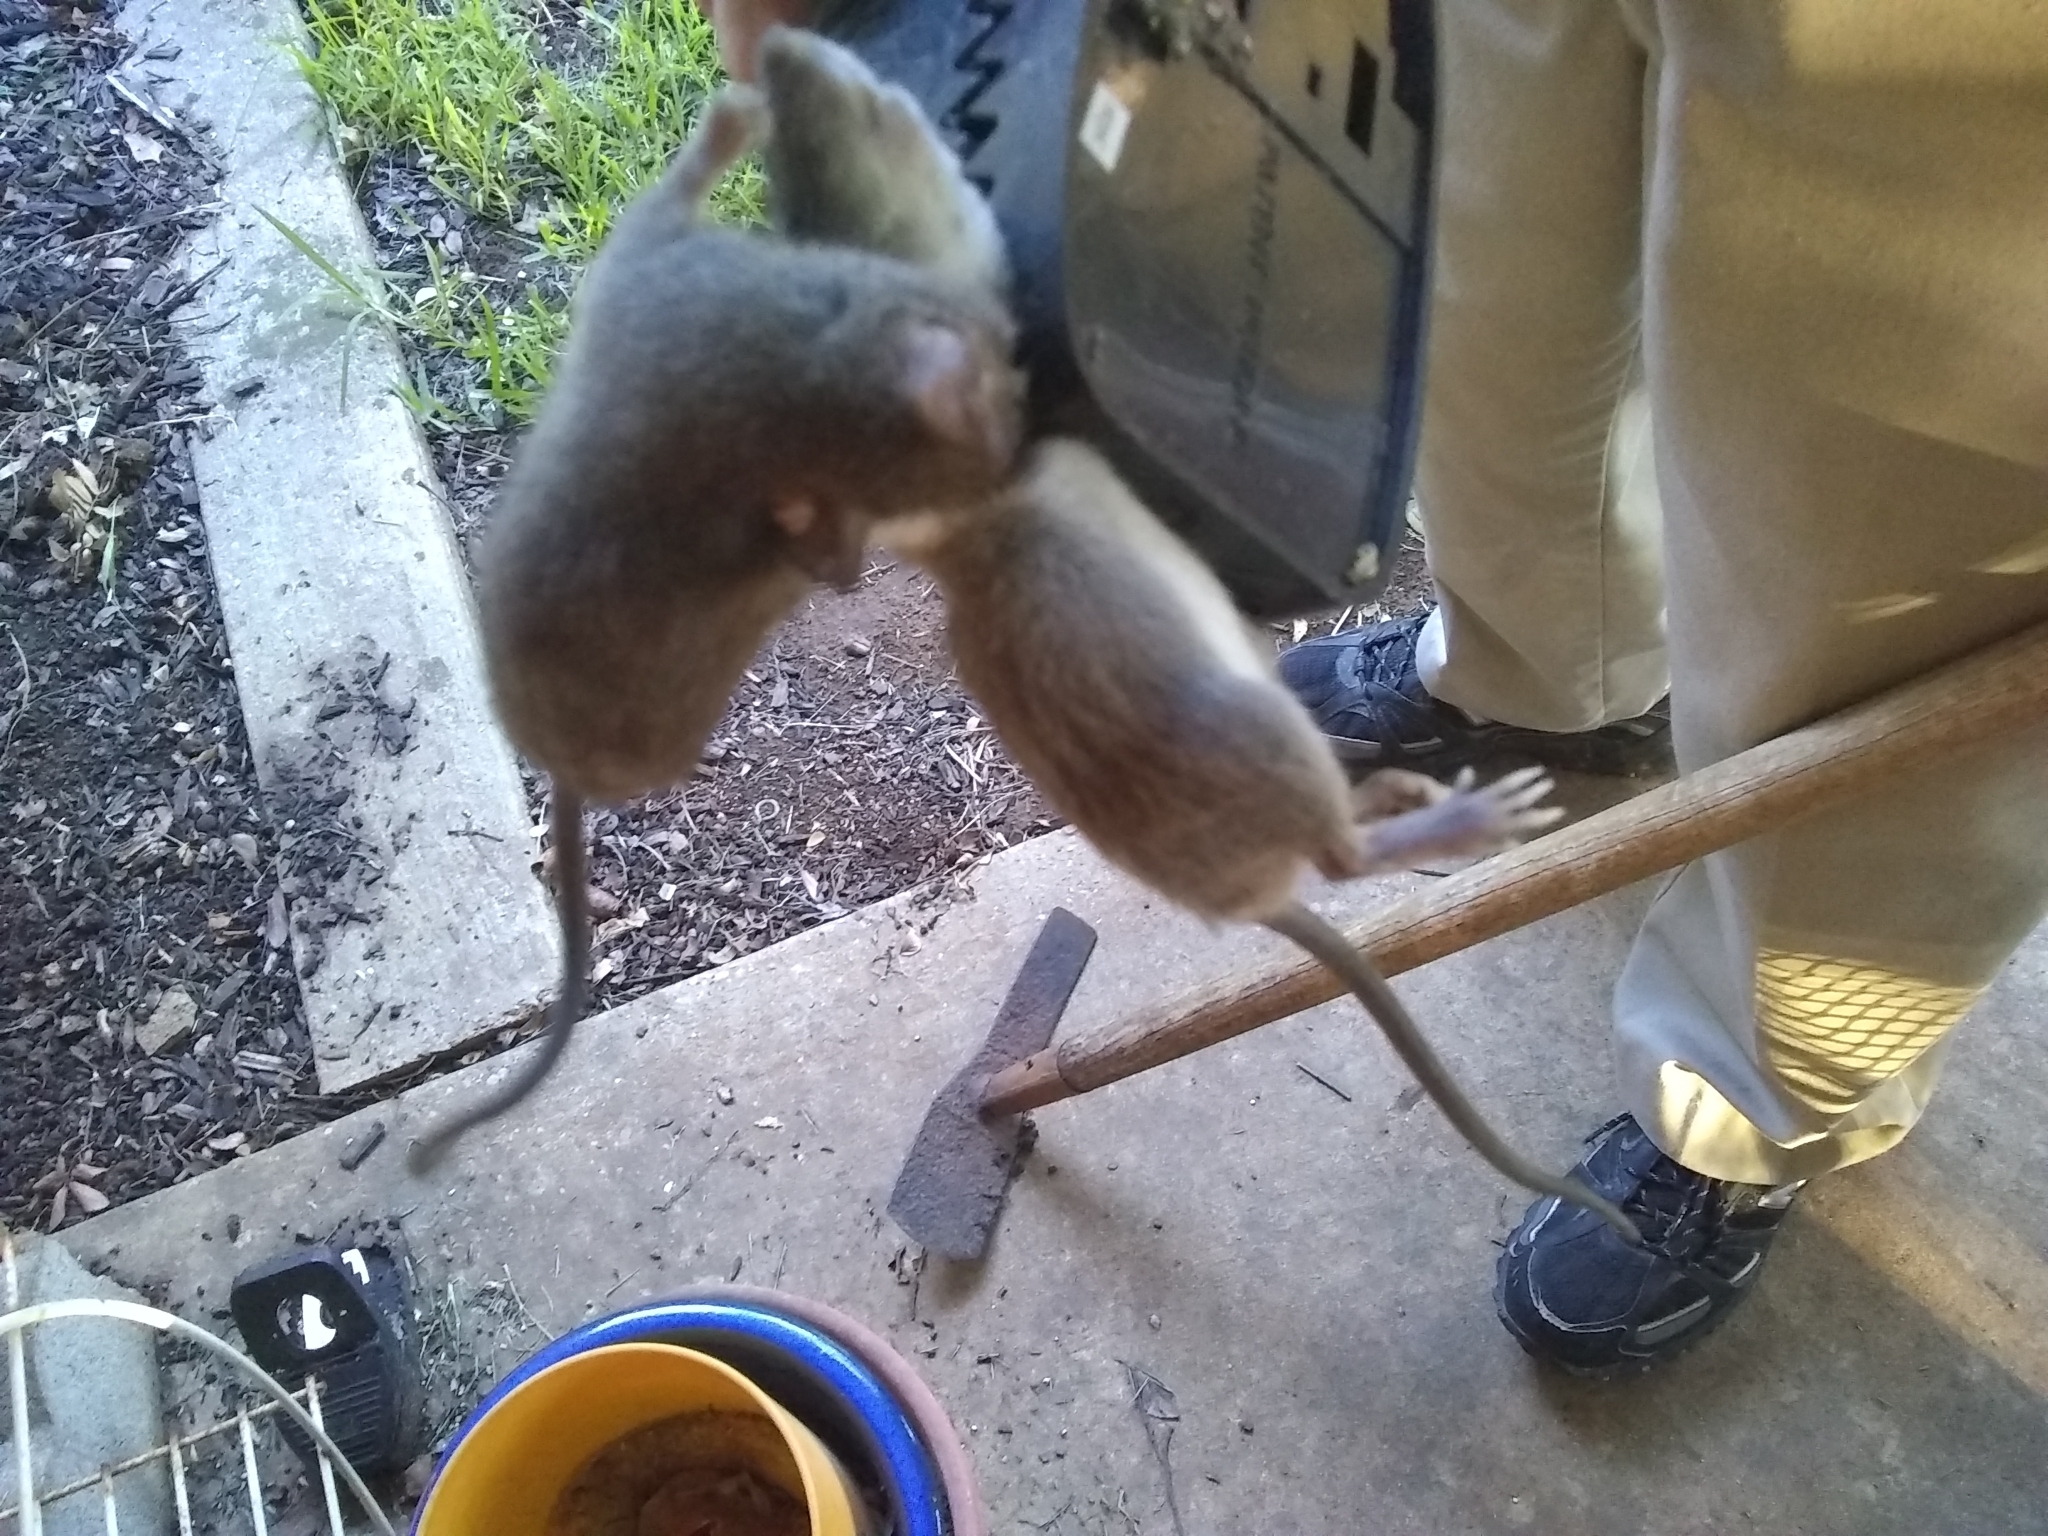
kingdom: Animalia
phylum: Chordata
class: Mammalia
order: Rodentia
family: Muridae
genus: Rattus
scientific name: Rattus rattus
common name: Black rat
